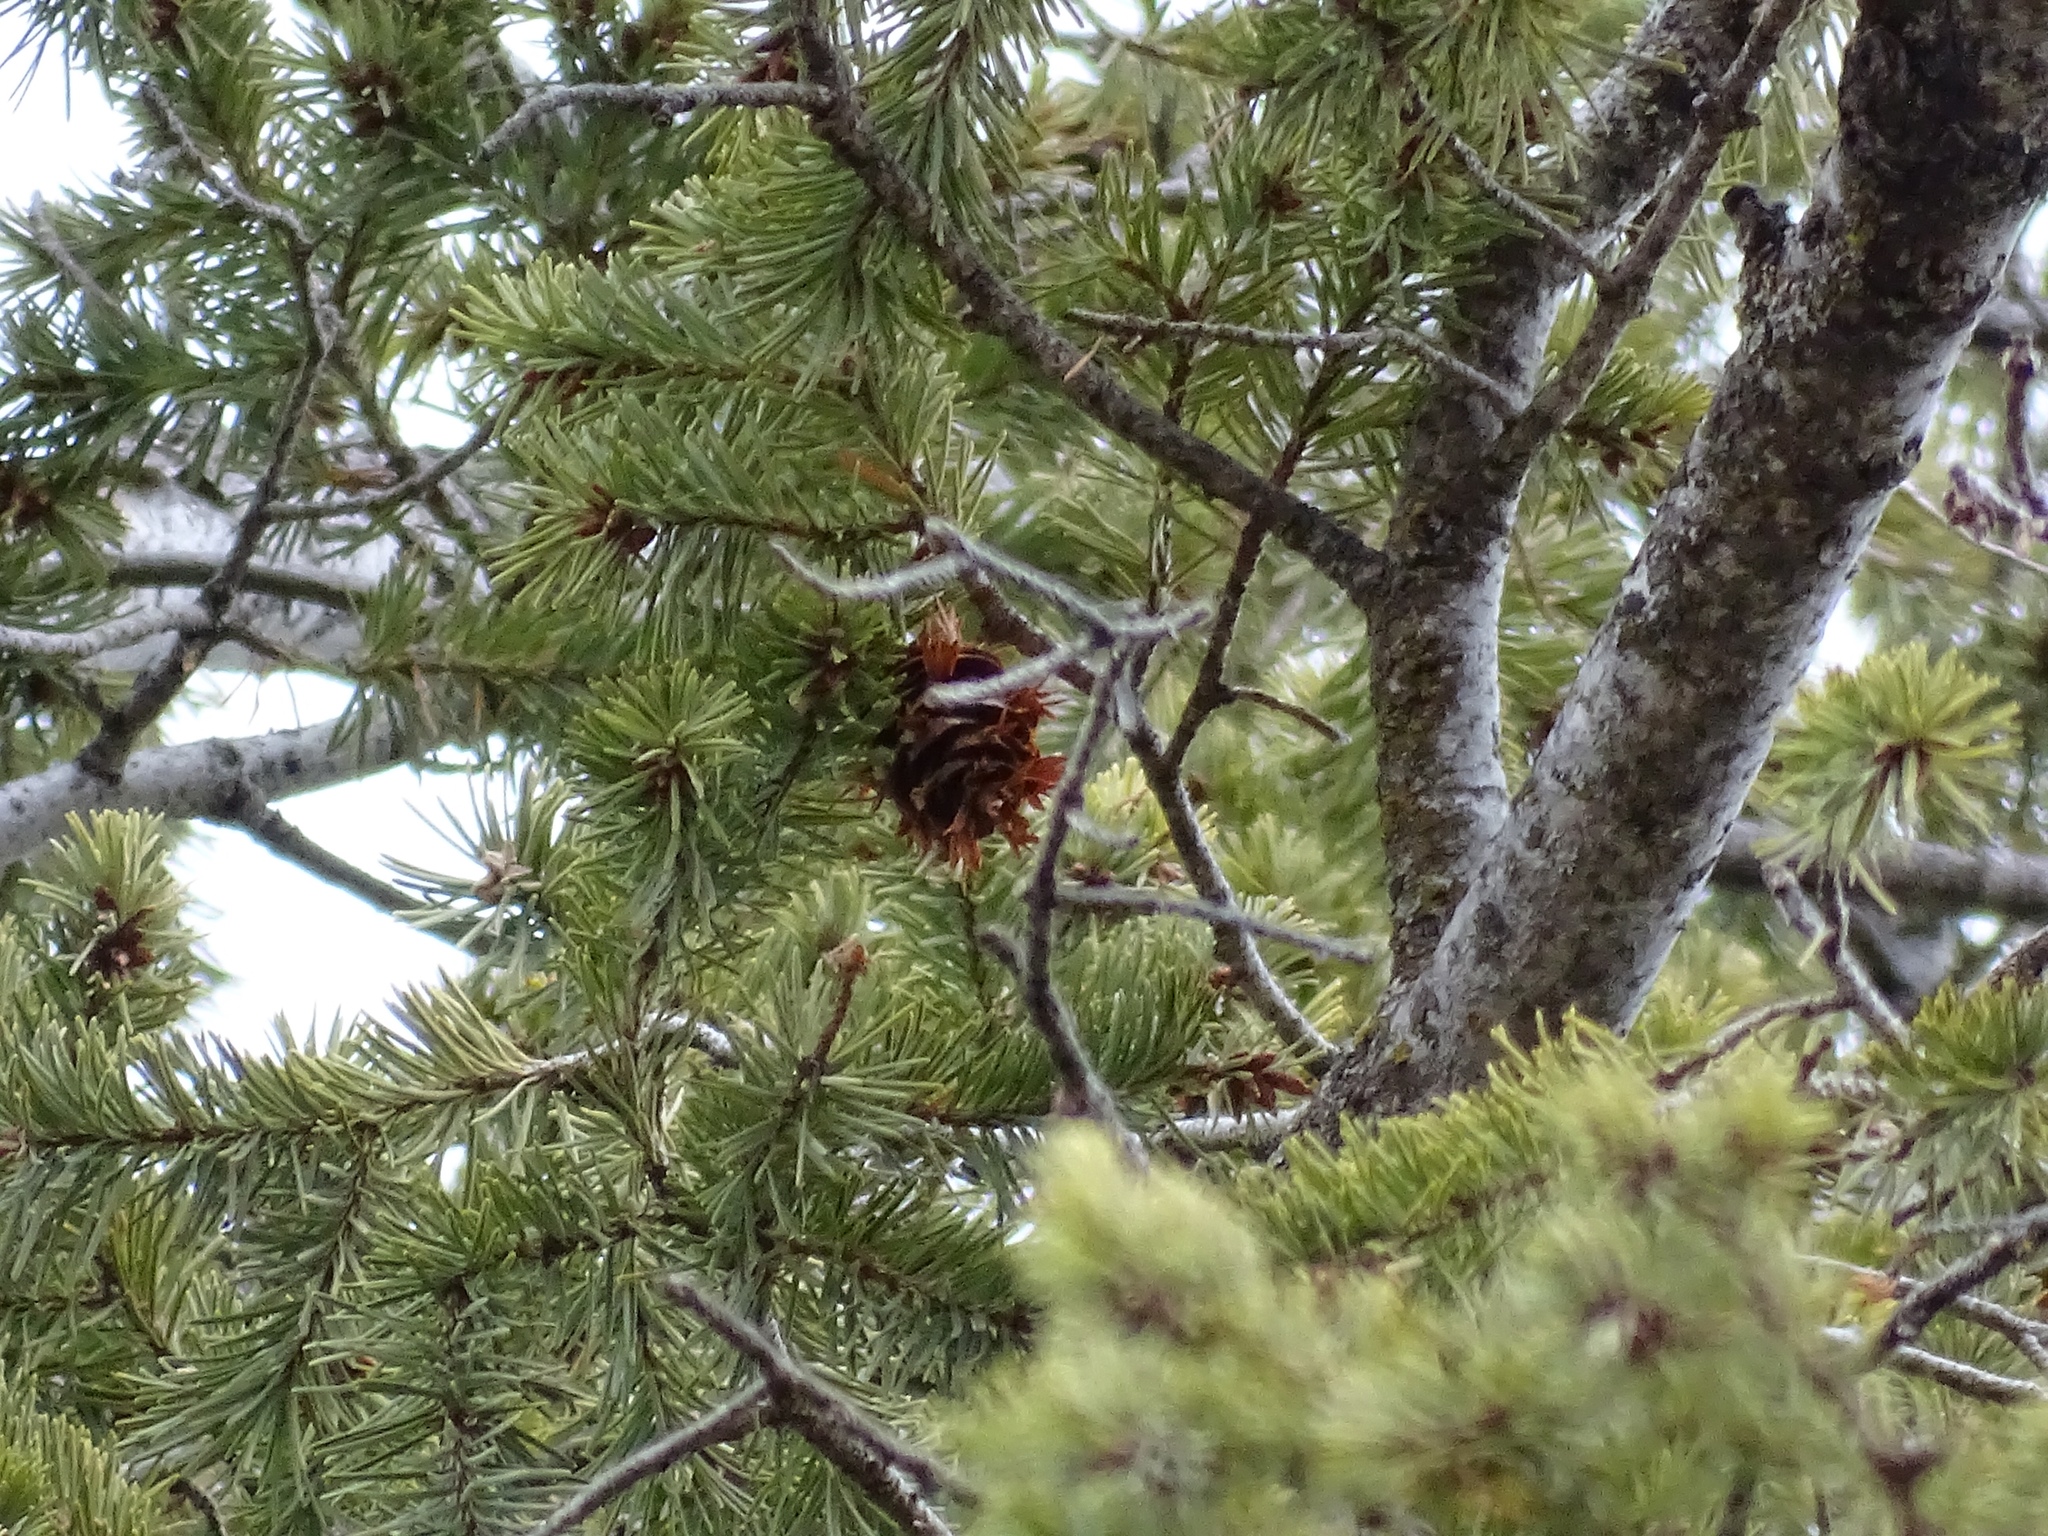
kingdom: Plantae
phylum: Tracheophyta
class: Pinopsida
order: Pinales
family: Pinaceae
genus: Pseudotsuga
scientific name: Pseudotsuga menziesii
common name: Douglas fir
